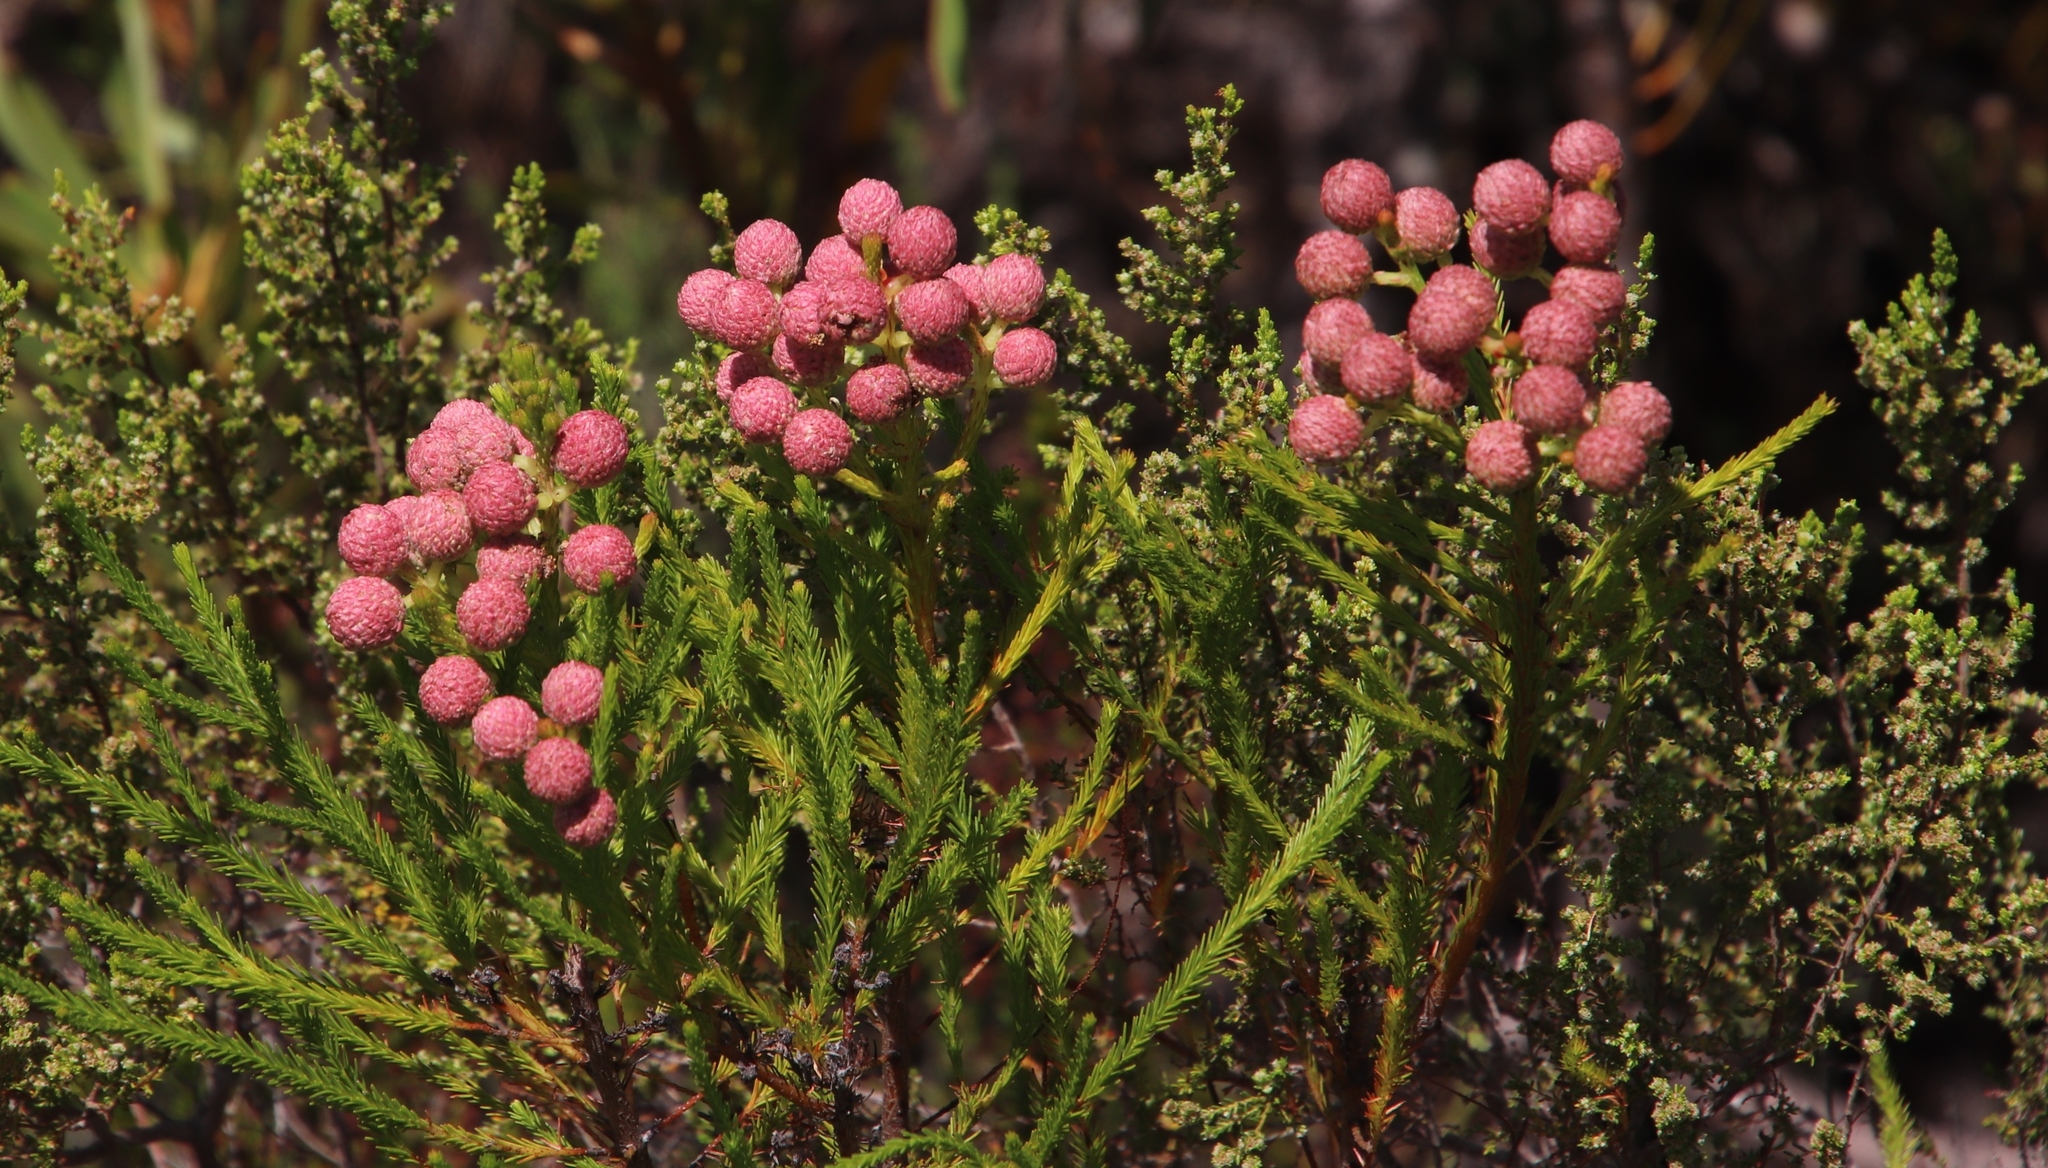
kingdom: Plantae
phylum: Tracheophyta
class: Magnoliopsida
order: Bruniales
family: Bruniaceae
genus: Berzelia
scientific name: Berzelia lanuginosa
